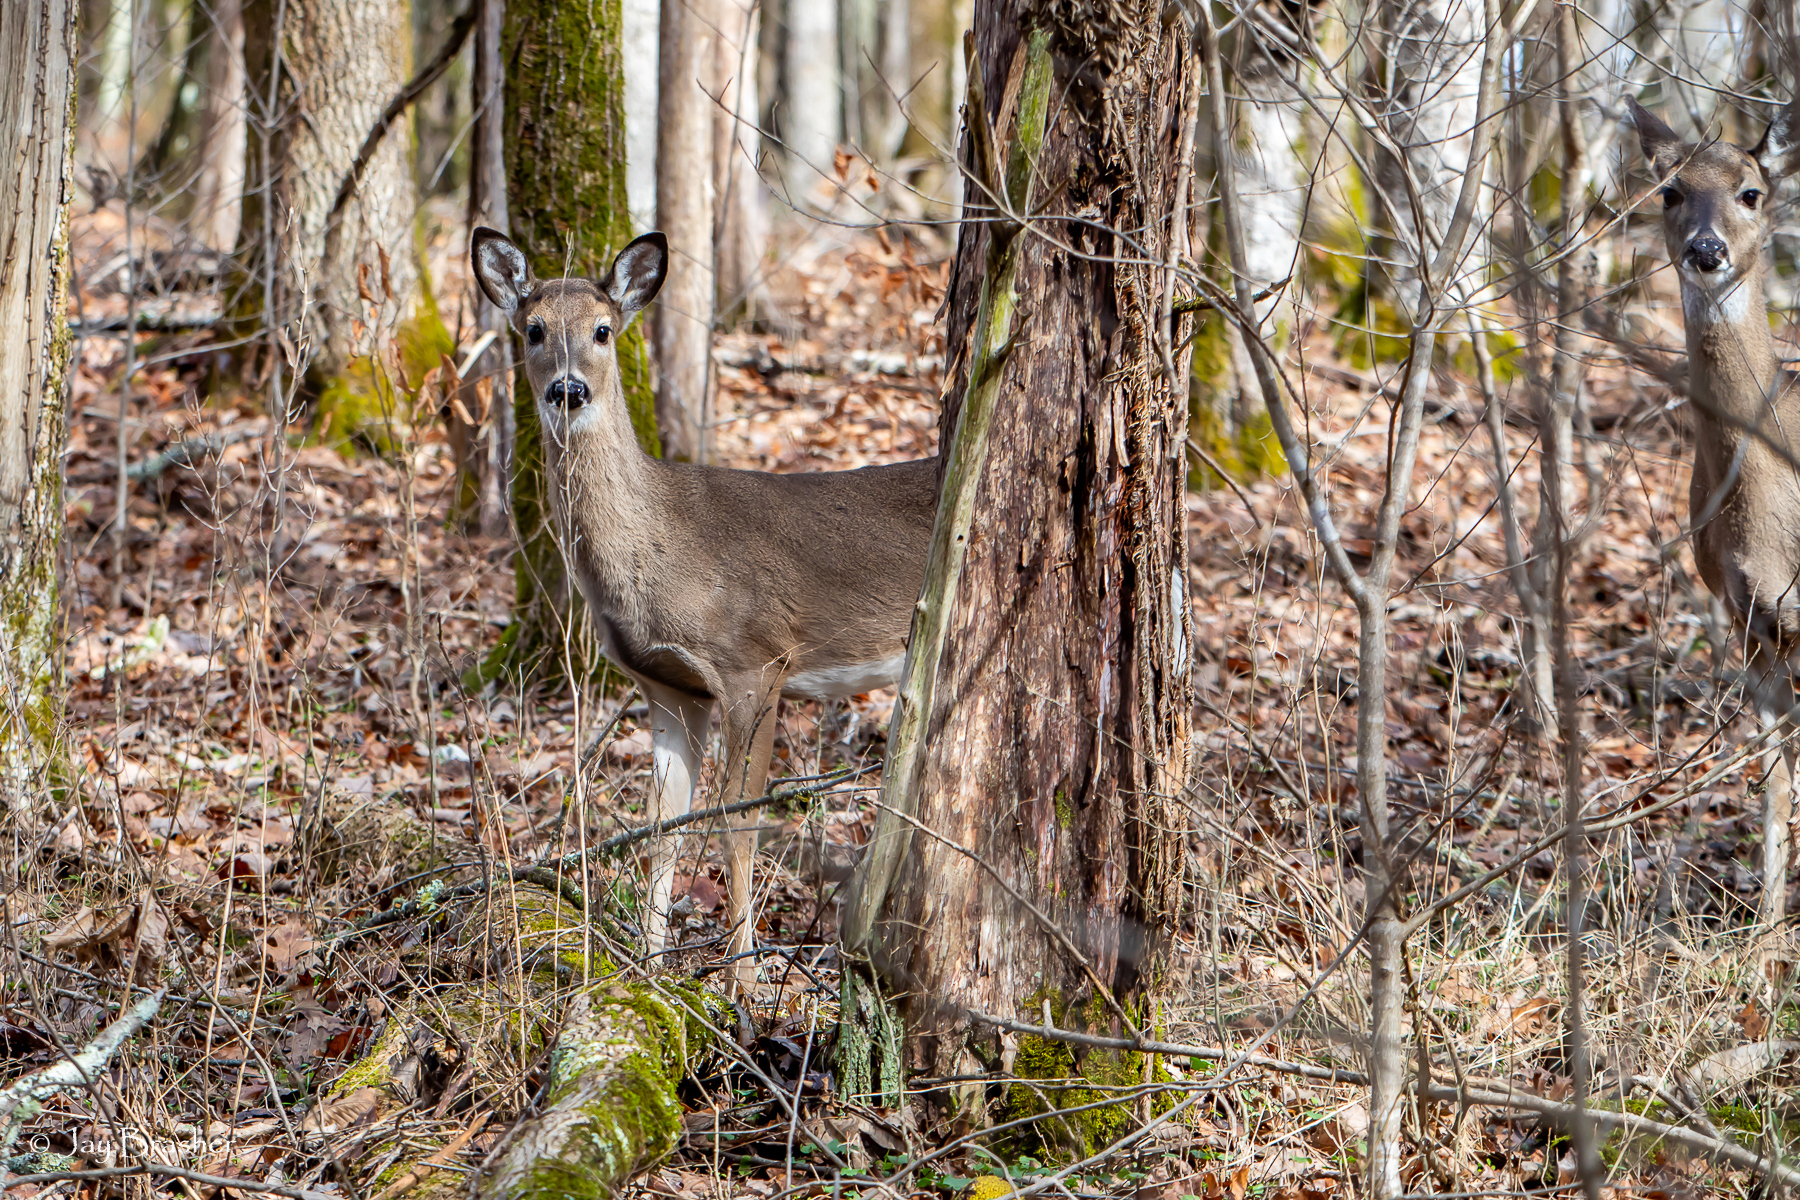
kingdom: Animalia
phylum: Chordata
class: Mammalia
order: Artiodactyla
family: Cervidae
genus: Odocoileus
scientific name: Odocoileus virginianus
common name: White-tailed deer
